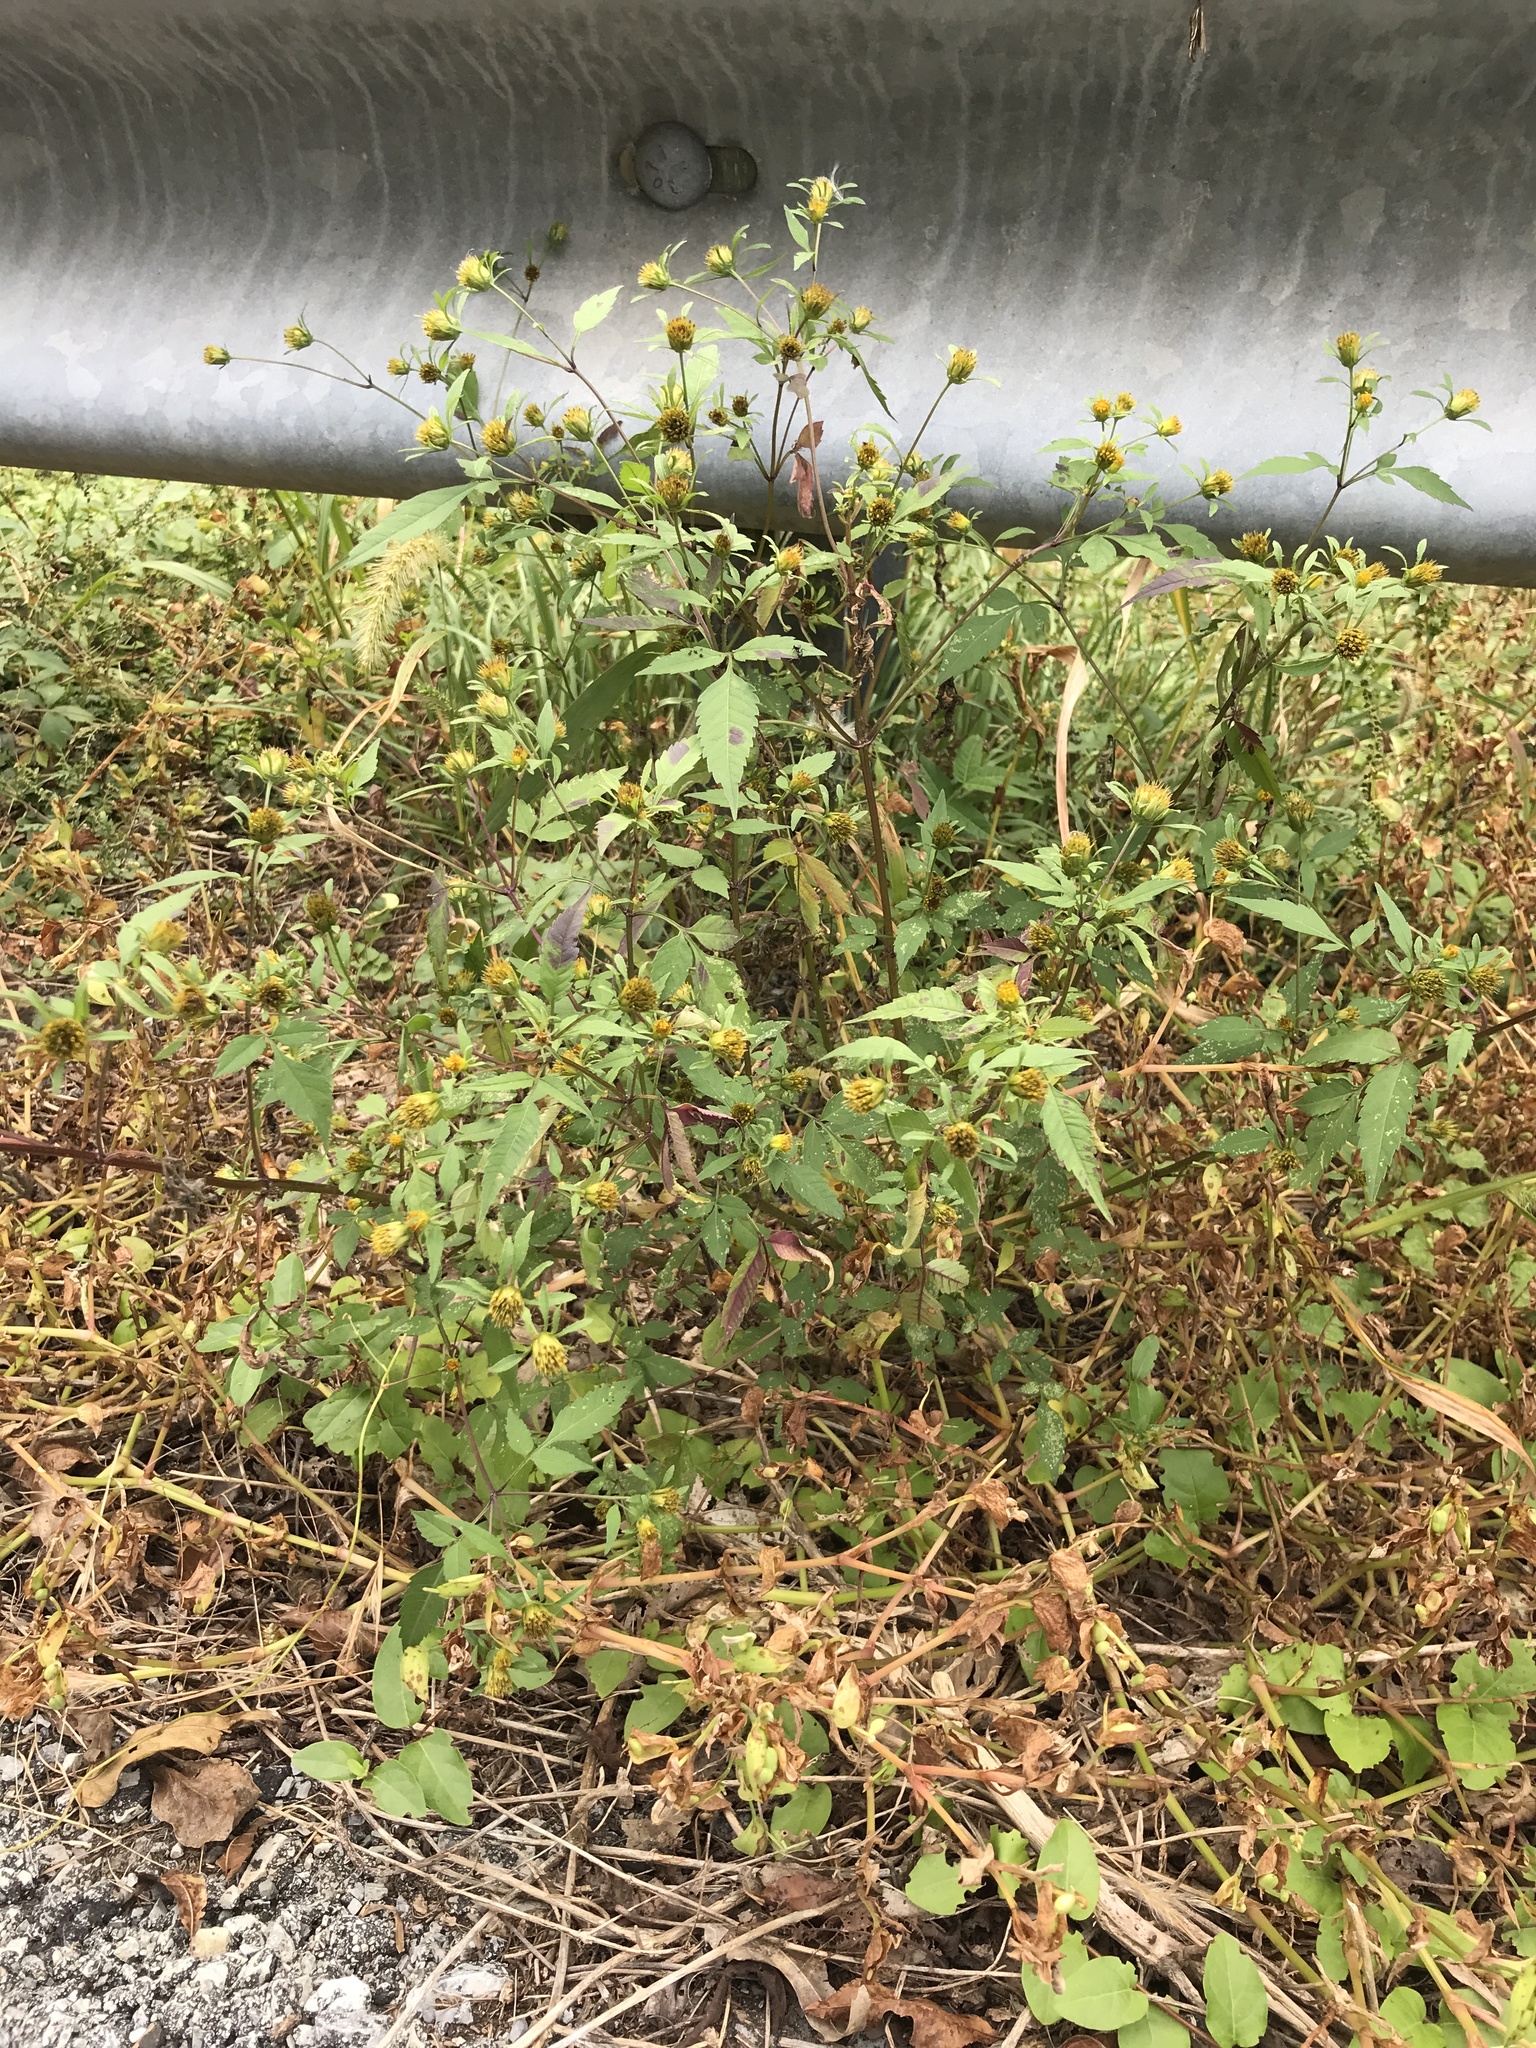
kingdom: Plantae
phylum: Tracheophyta
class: Magnoliopsida
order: Asterales
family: Asteraceae
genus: Bidens
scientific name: Bidens frondosa
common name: Beggarticks
